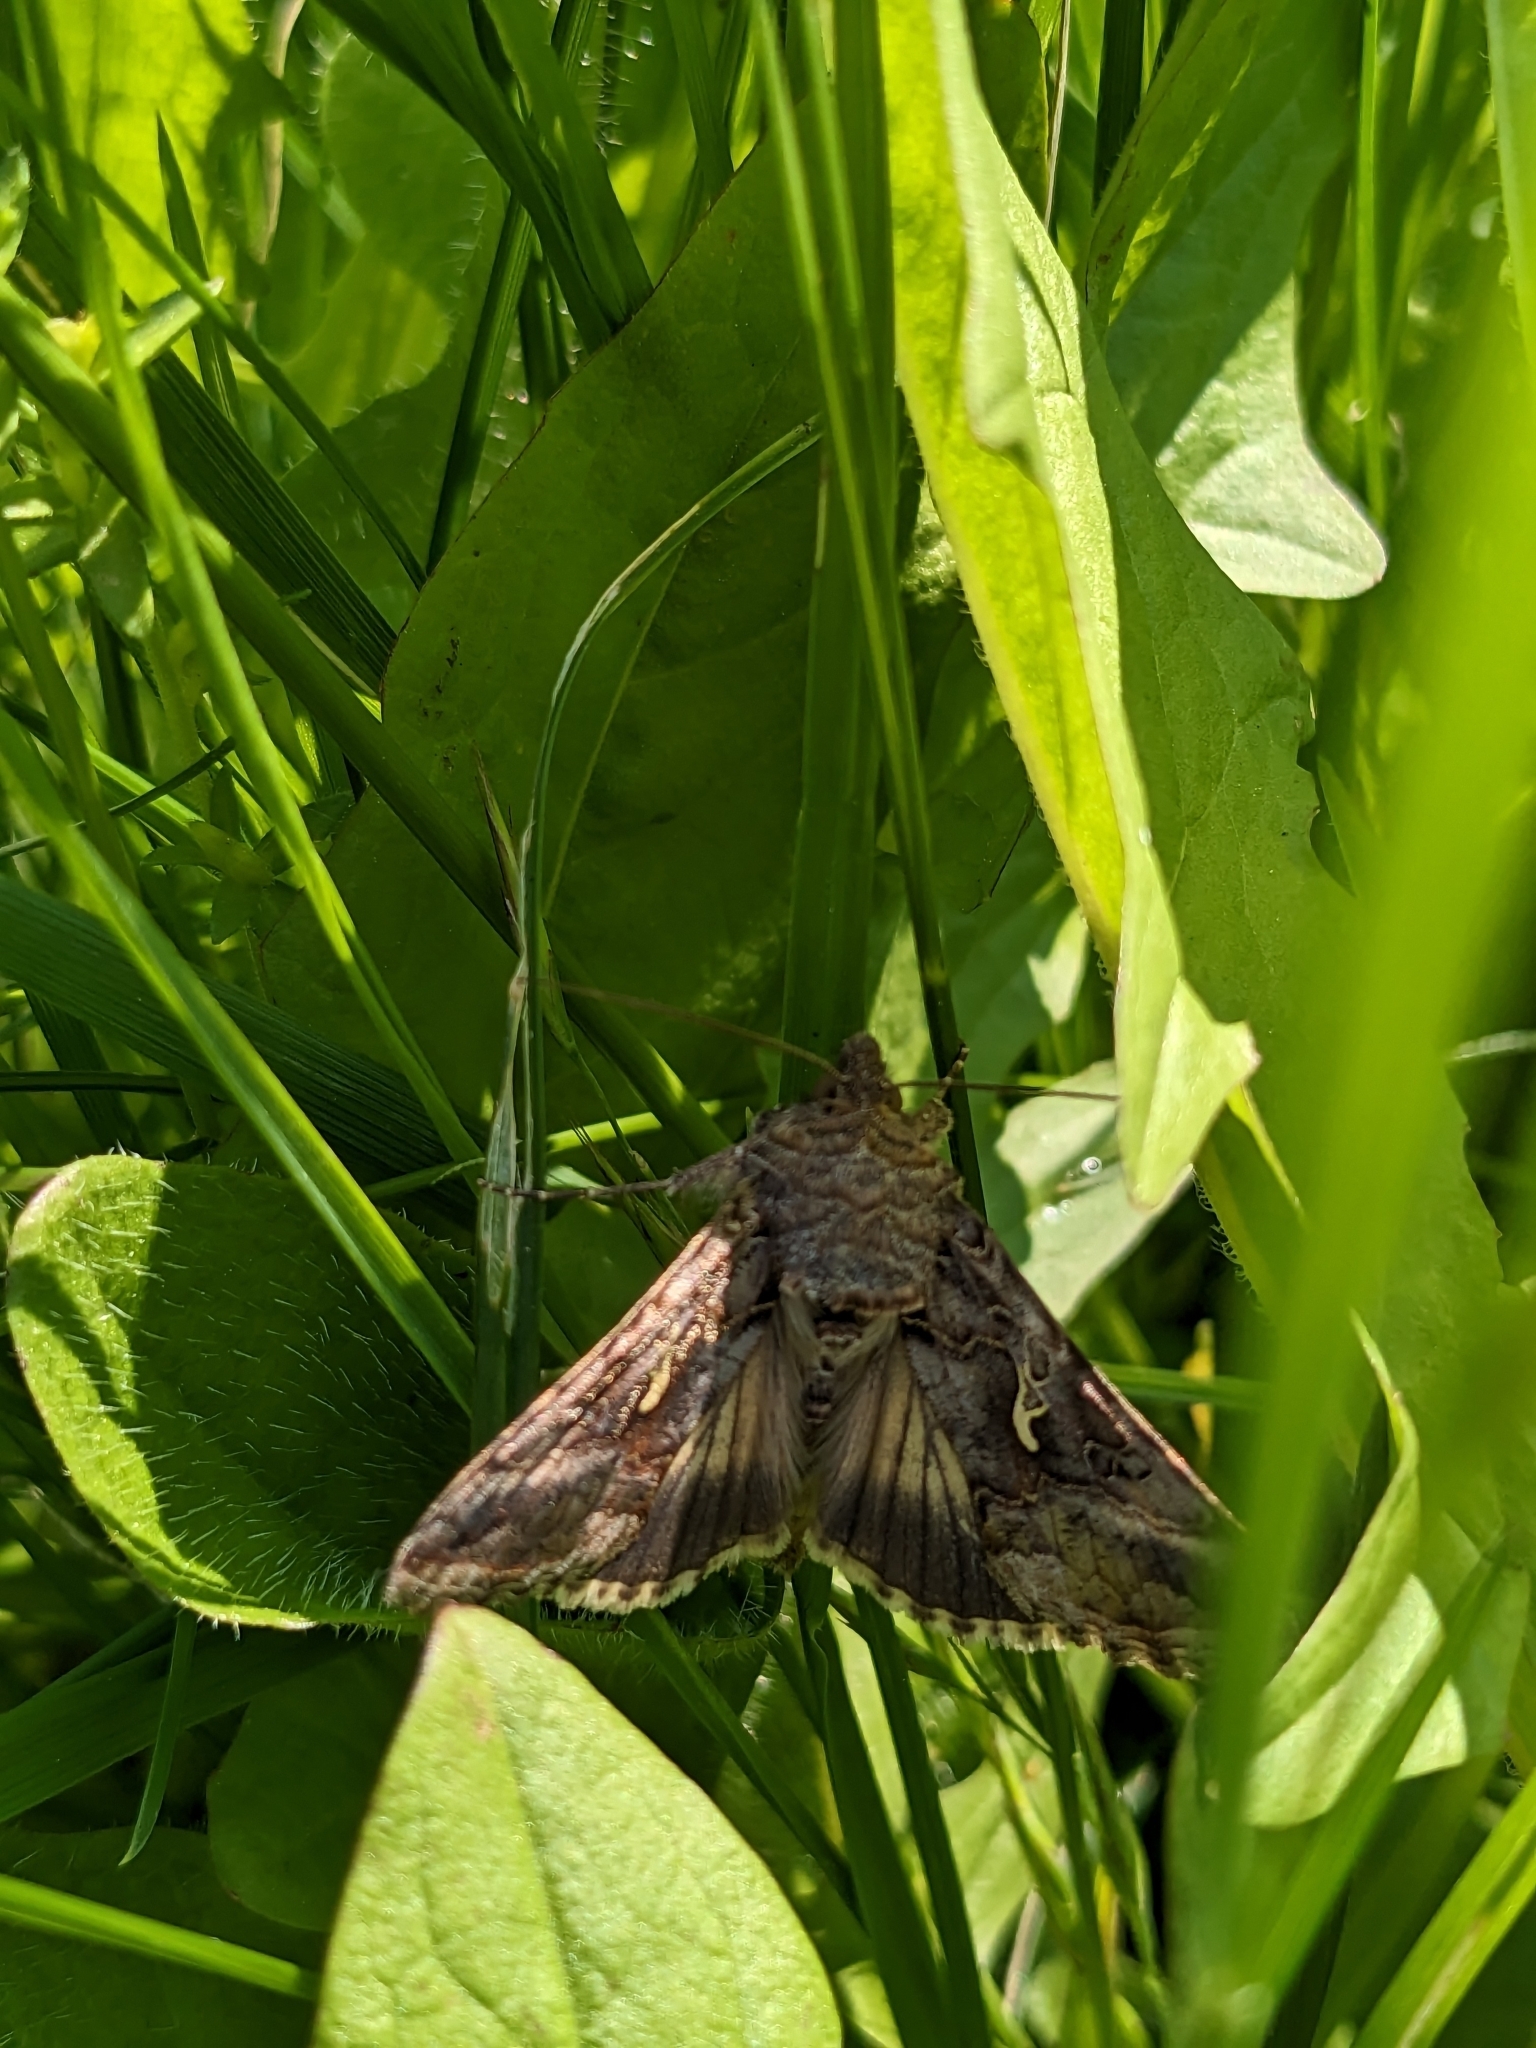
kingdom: Animalia
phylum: Arthropoda
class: Insecta
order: Lepidoptera
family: Noctuidae
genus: Autographa
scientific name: Autographa gamma
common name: Silver y
